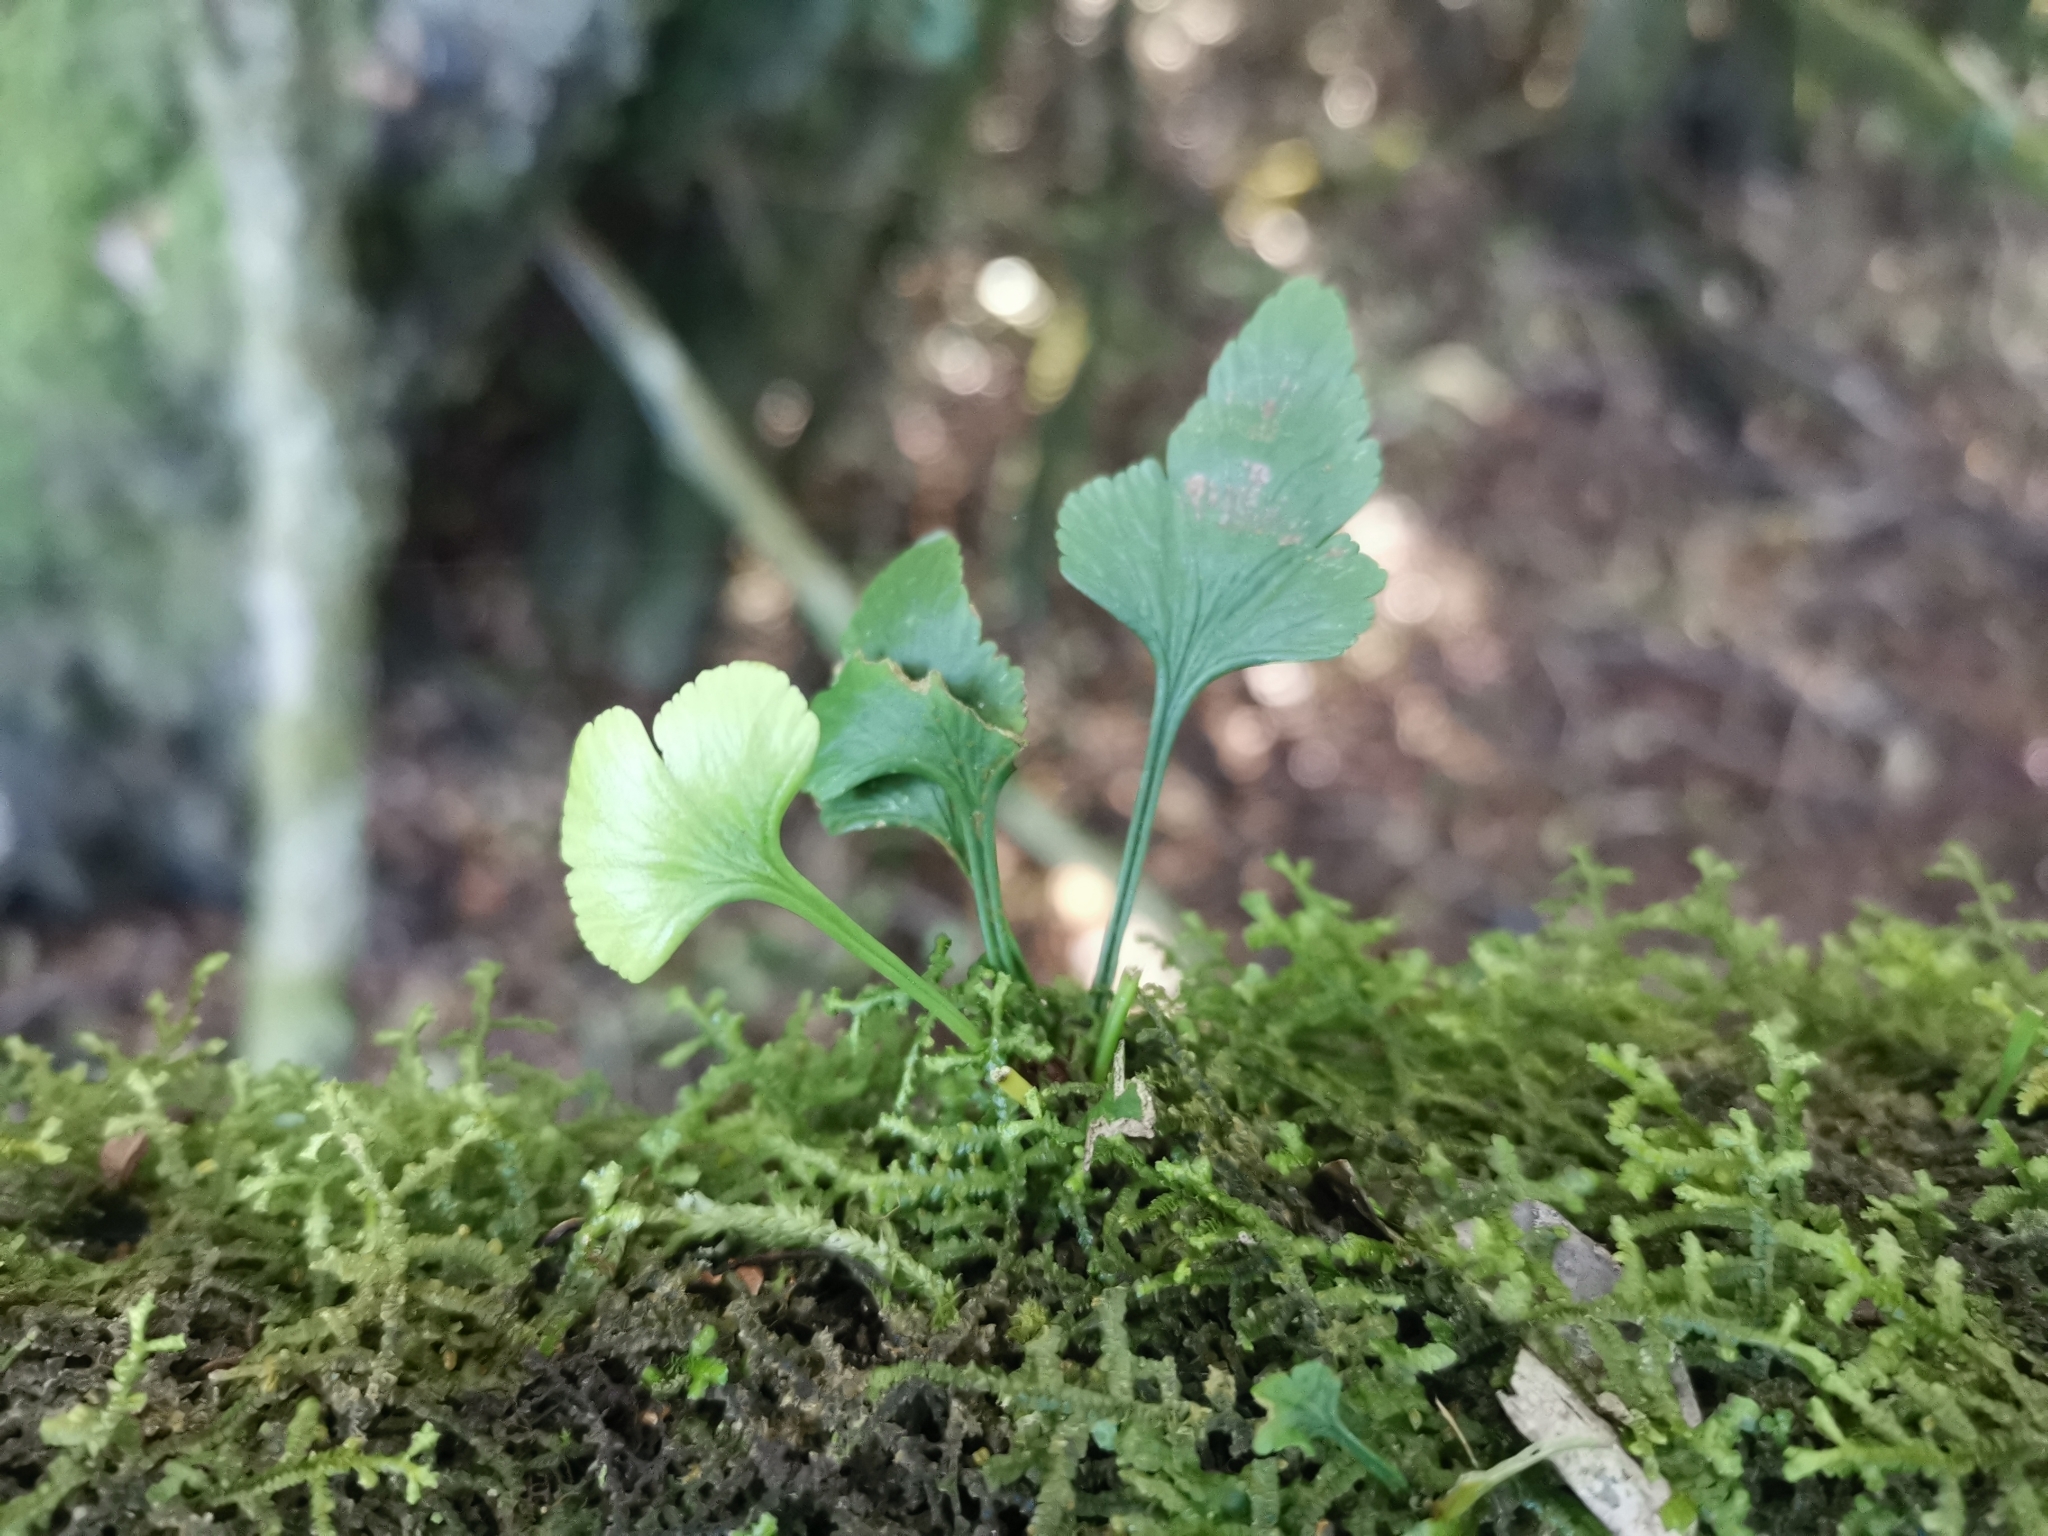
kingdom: Plantae
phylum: Tracheophyta
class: Polypodiopsida
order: Polypodiales
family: Aspleniaceae
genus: Asplenium
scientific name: Asplenium trilobum
